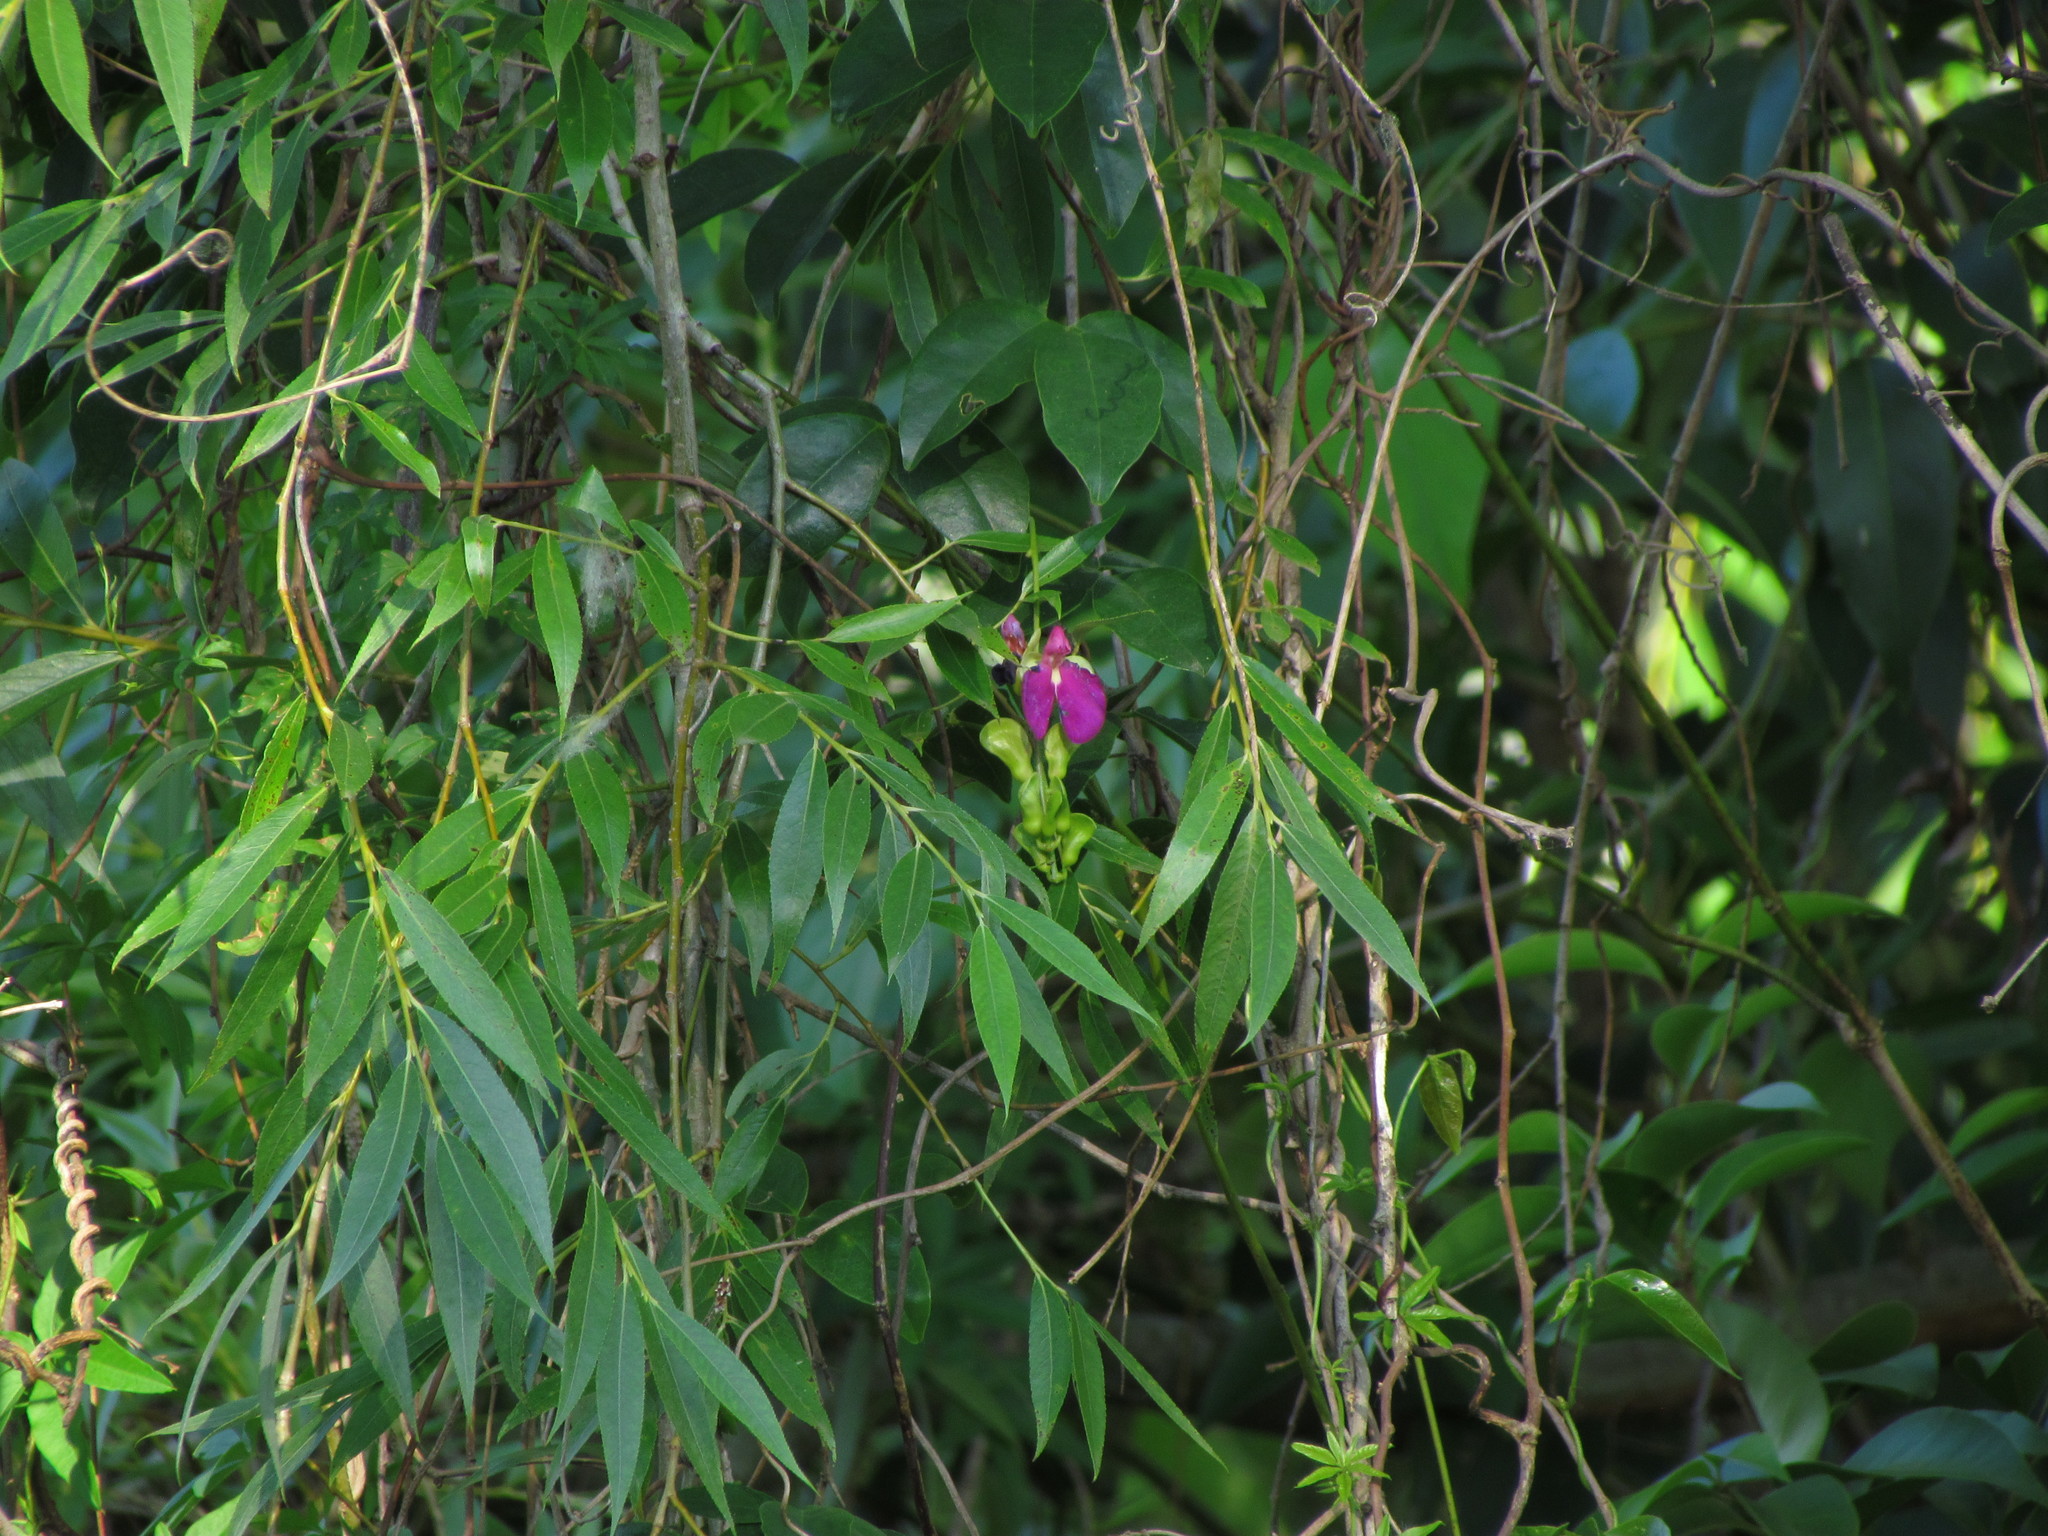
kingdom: Plantae
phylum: Tracheophyta
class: Magnoliopsida
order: Fabales
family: Fabaceae
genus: Canavalia
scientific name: Canavalia bonariensis
